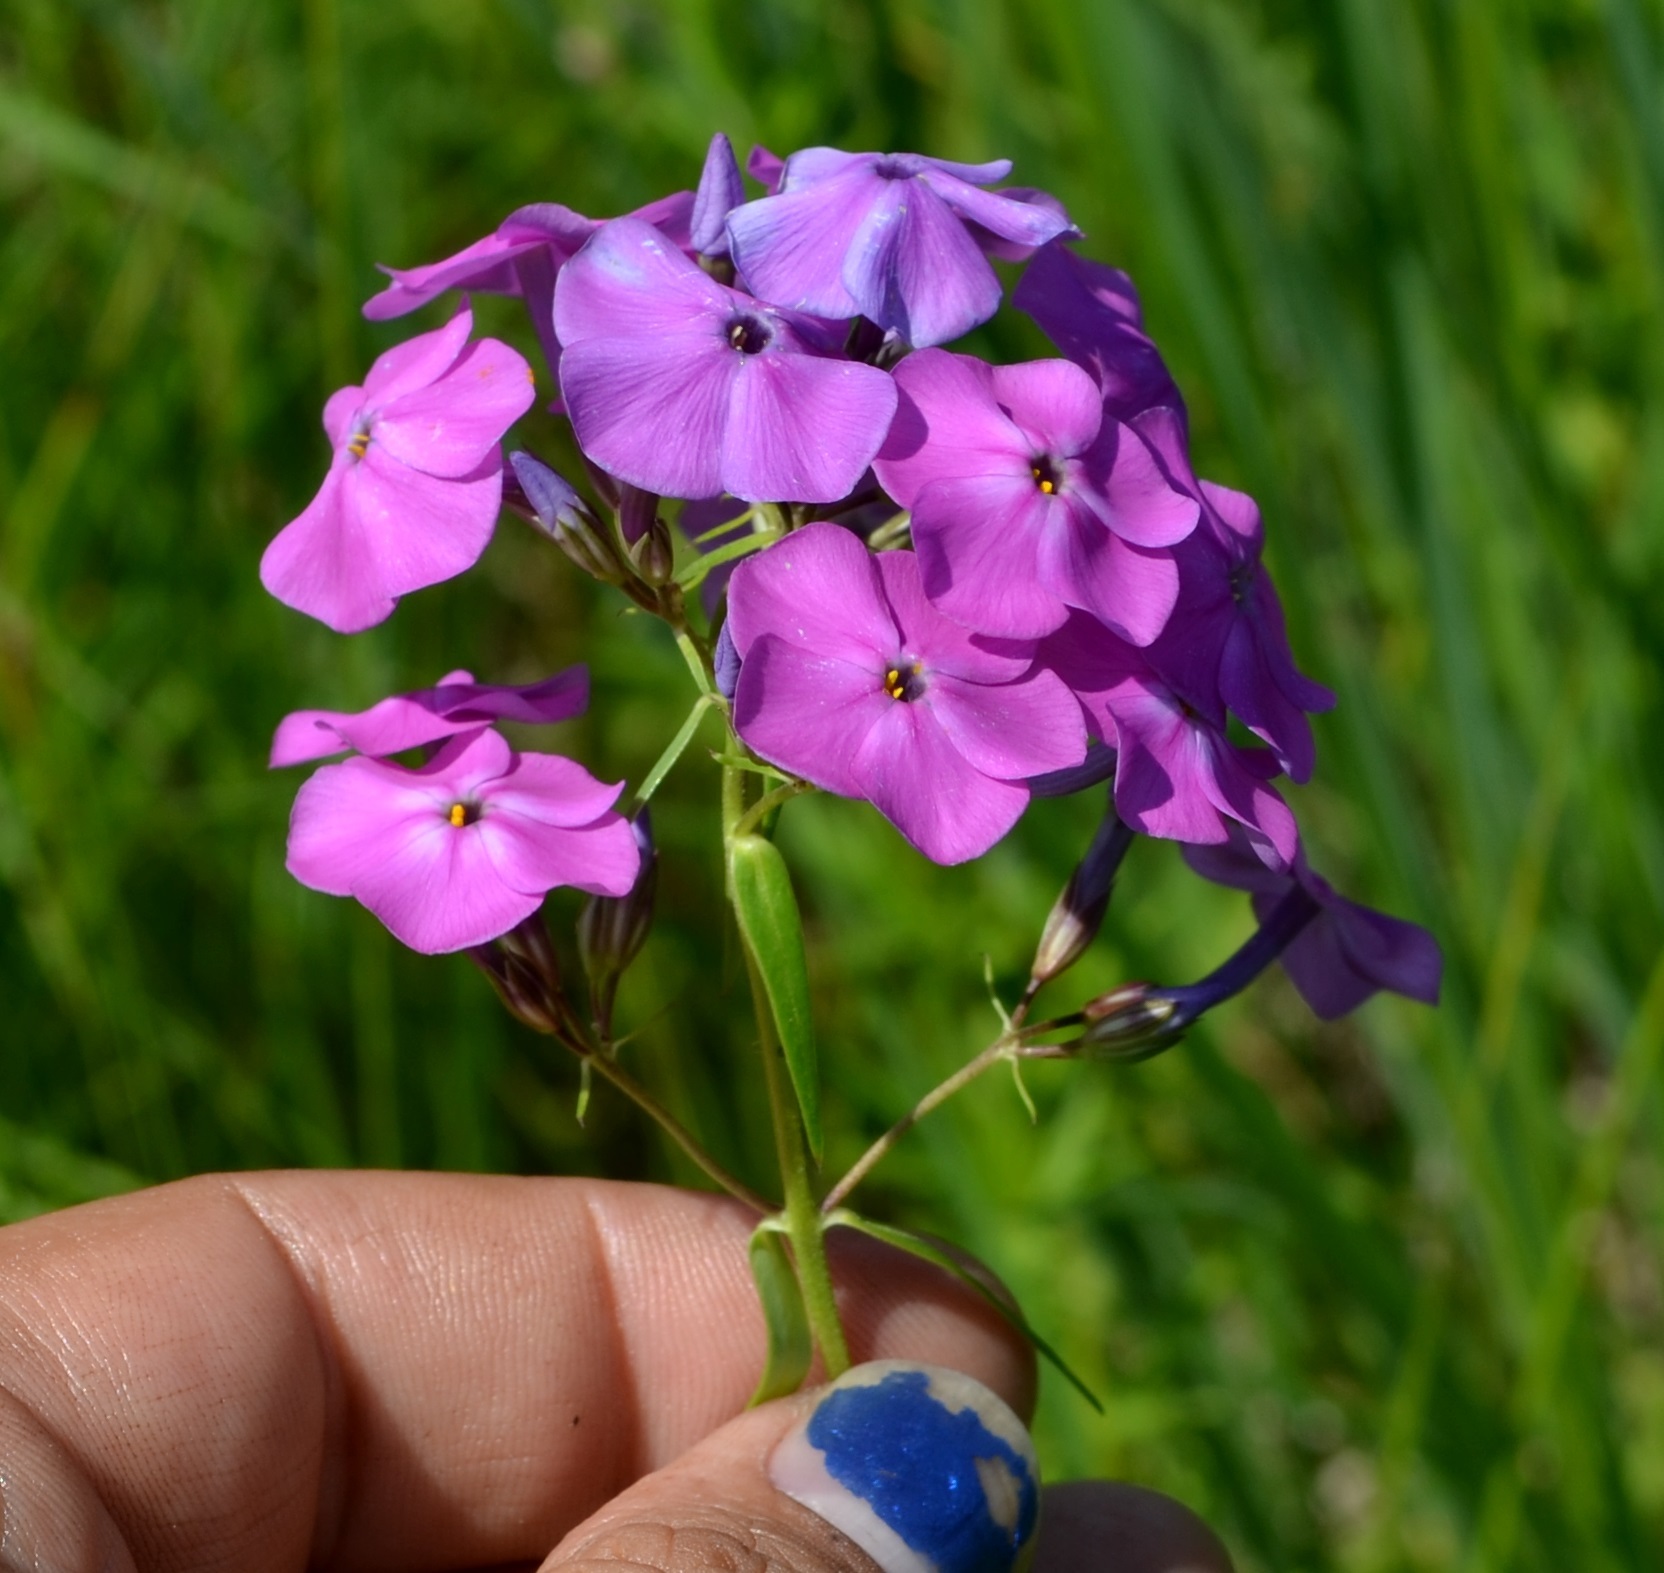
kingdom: Plantae
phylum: Tracheophyta
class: Magnoliopsida
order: Ericales
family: Polemoniaceae
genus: Phlox
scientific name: Phlox glaberrima
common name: Smooth phlox
